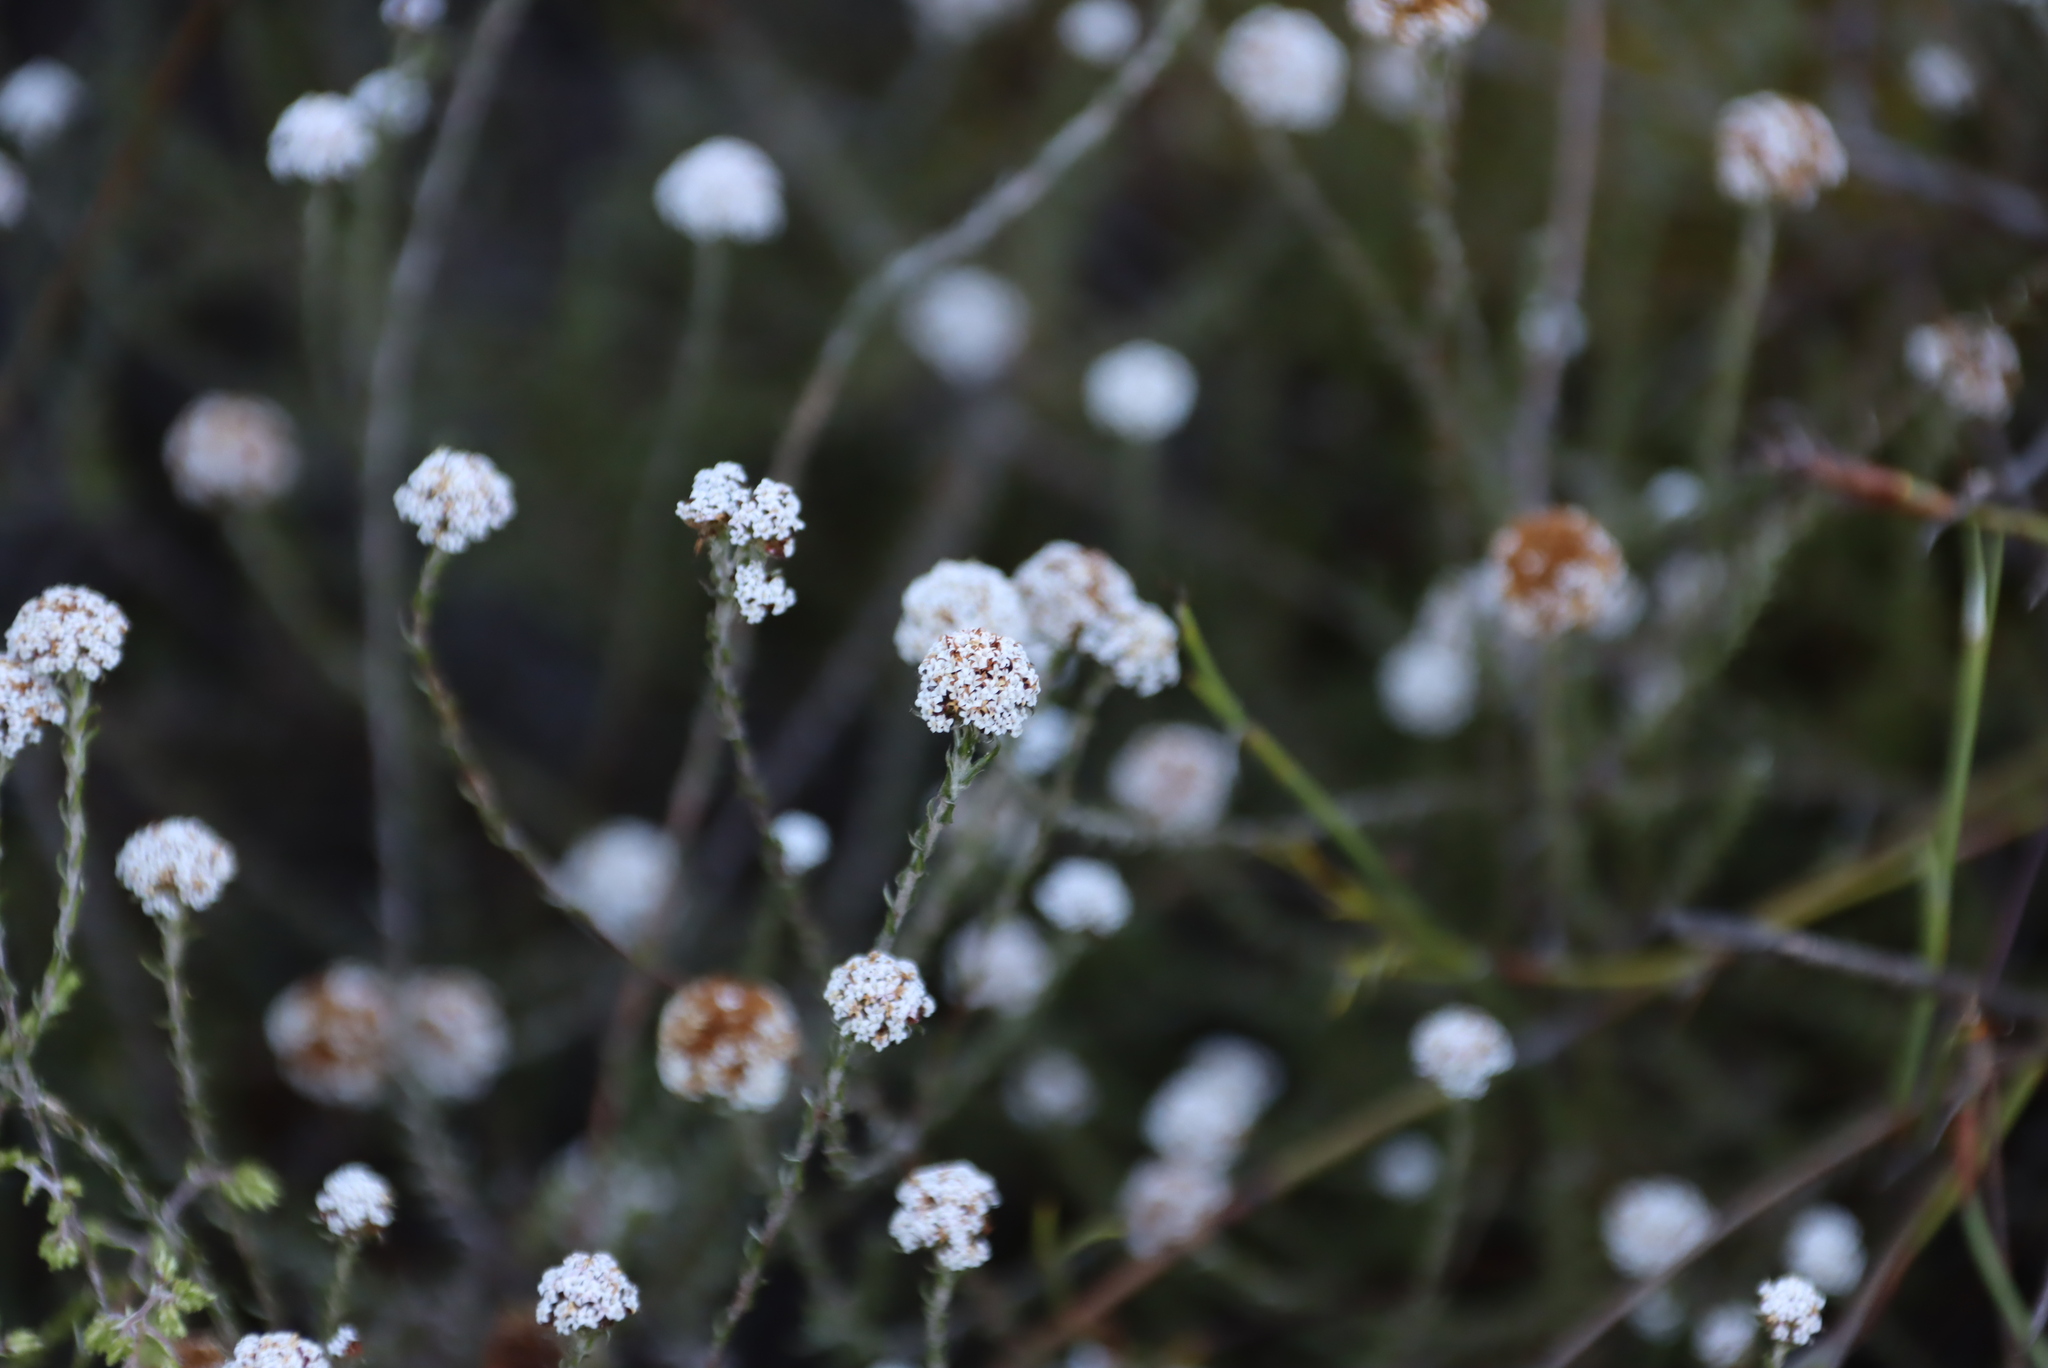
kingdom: Plantae
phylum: Tracheophyta
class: Magnoliopsida
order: Asterales
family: Asteraceae
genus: Stoebe
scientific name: Stoebe capitata
